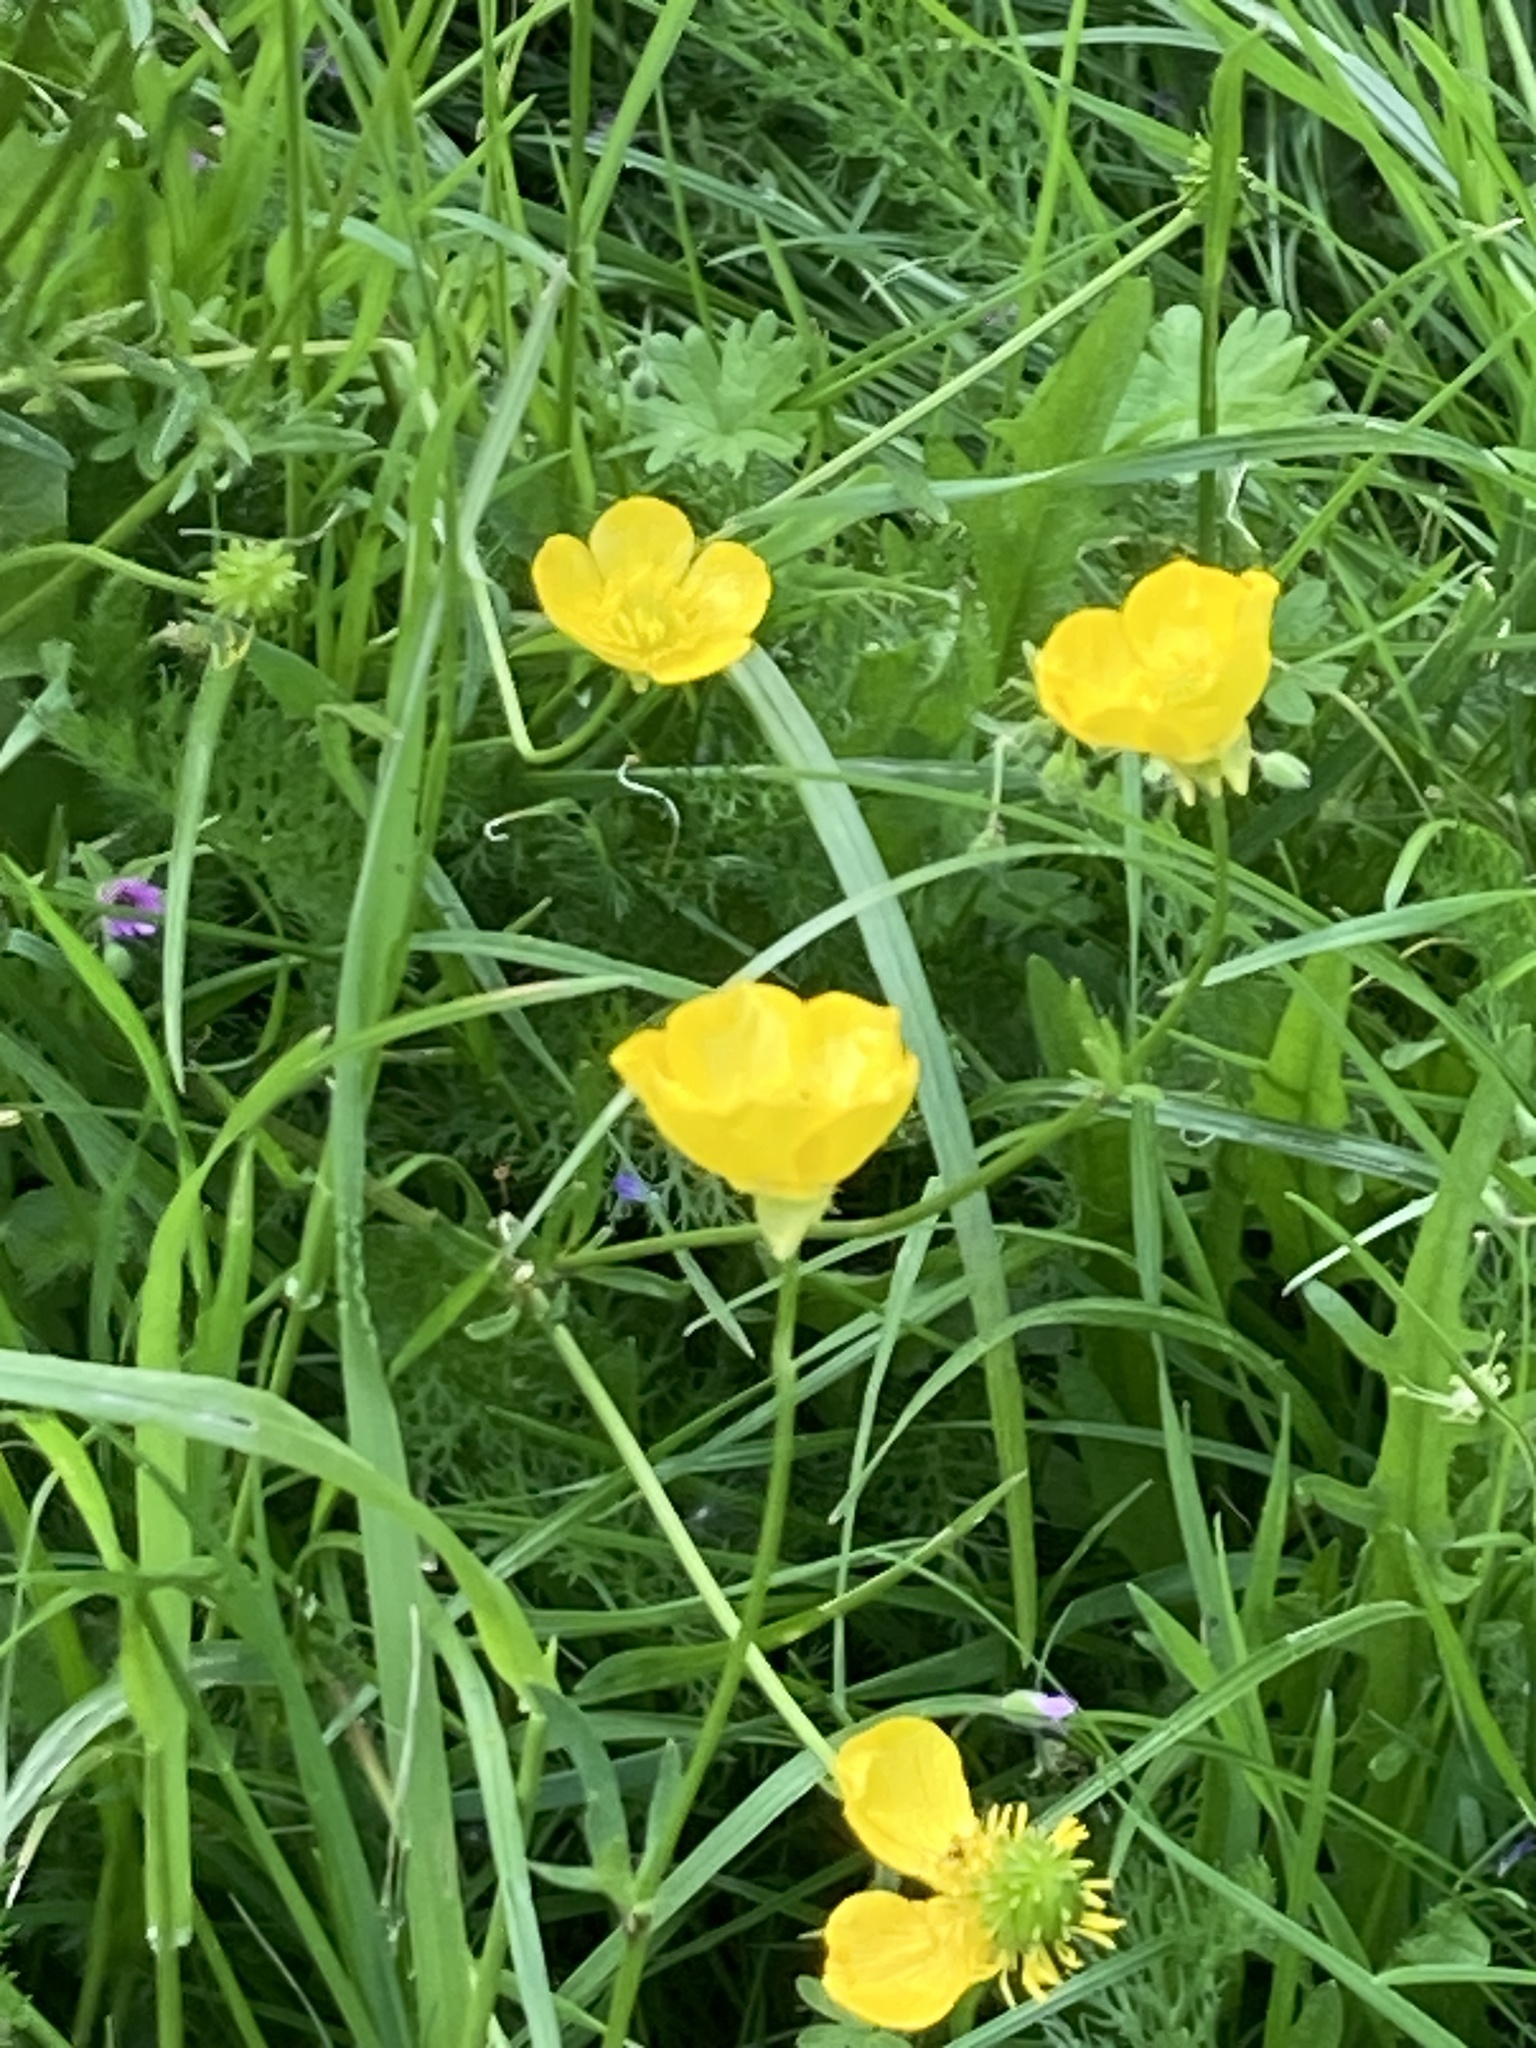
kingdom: Plantae
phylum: Tracheophyta
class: Magnoliopsida
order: Ranunculales
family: Ranunculaceae
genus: Ranunculus
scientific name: Ranunculus bulbosus
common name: Bulbous buttercup
